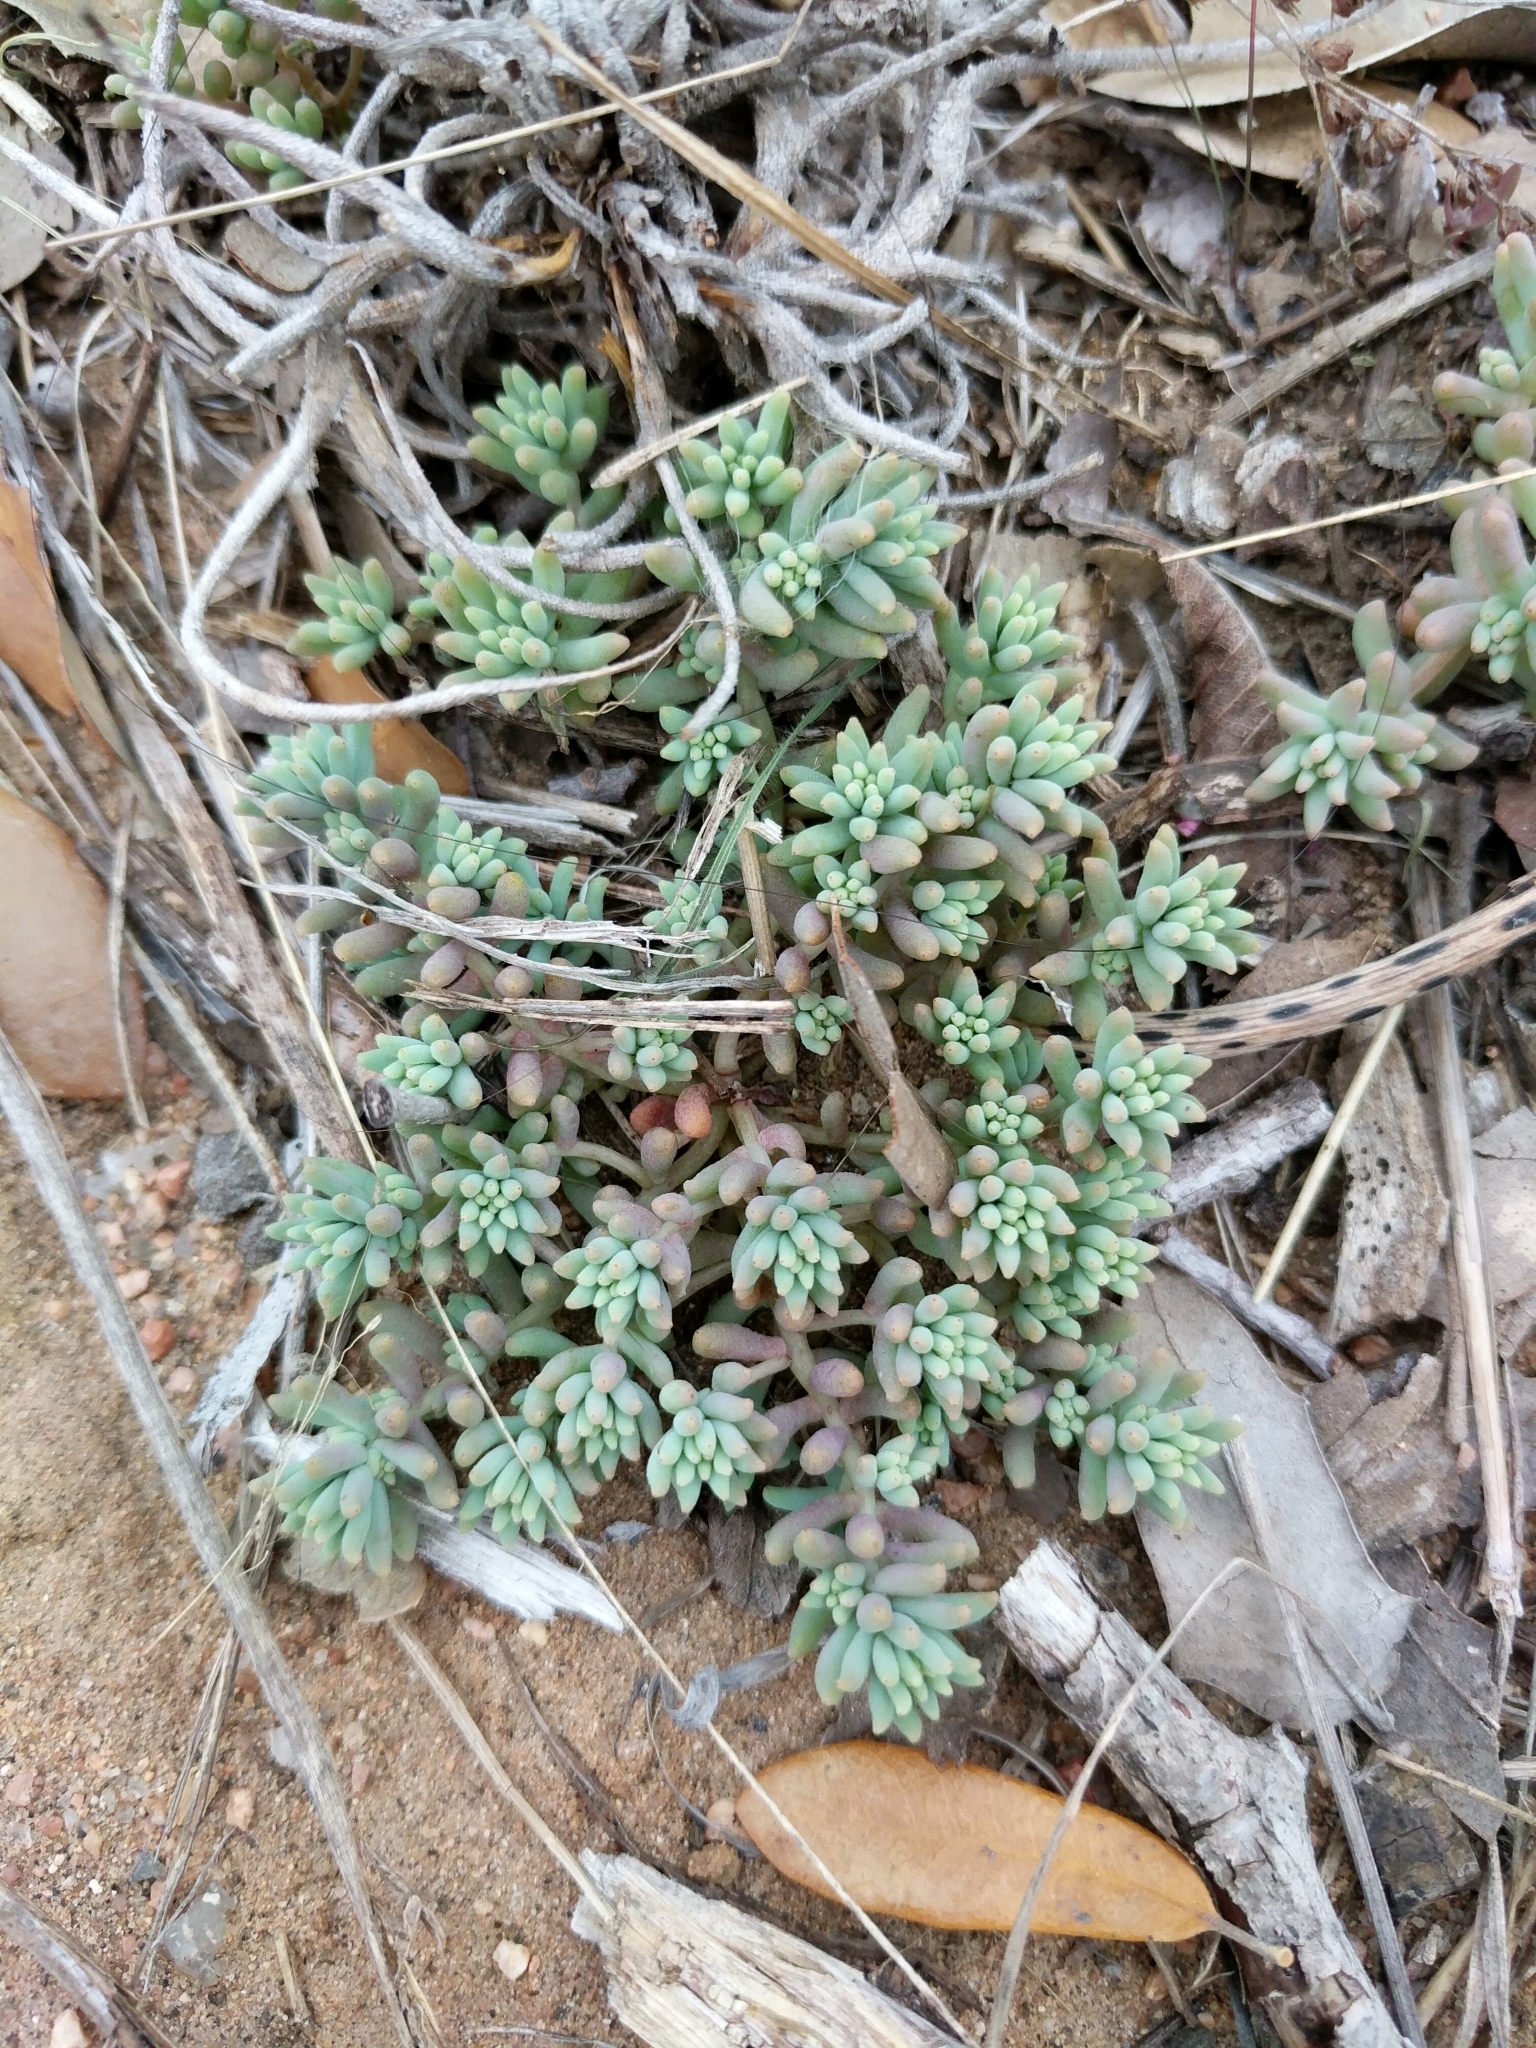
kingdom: Plantae
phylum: Tracheophyta
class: Magnoliopsida
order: Saxifragales
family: Crassulaceae
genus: Sedum
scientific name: Sedum nuttallii
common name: Yellow stonecrop
